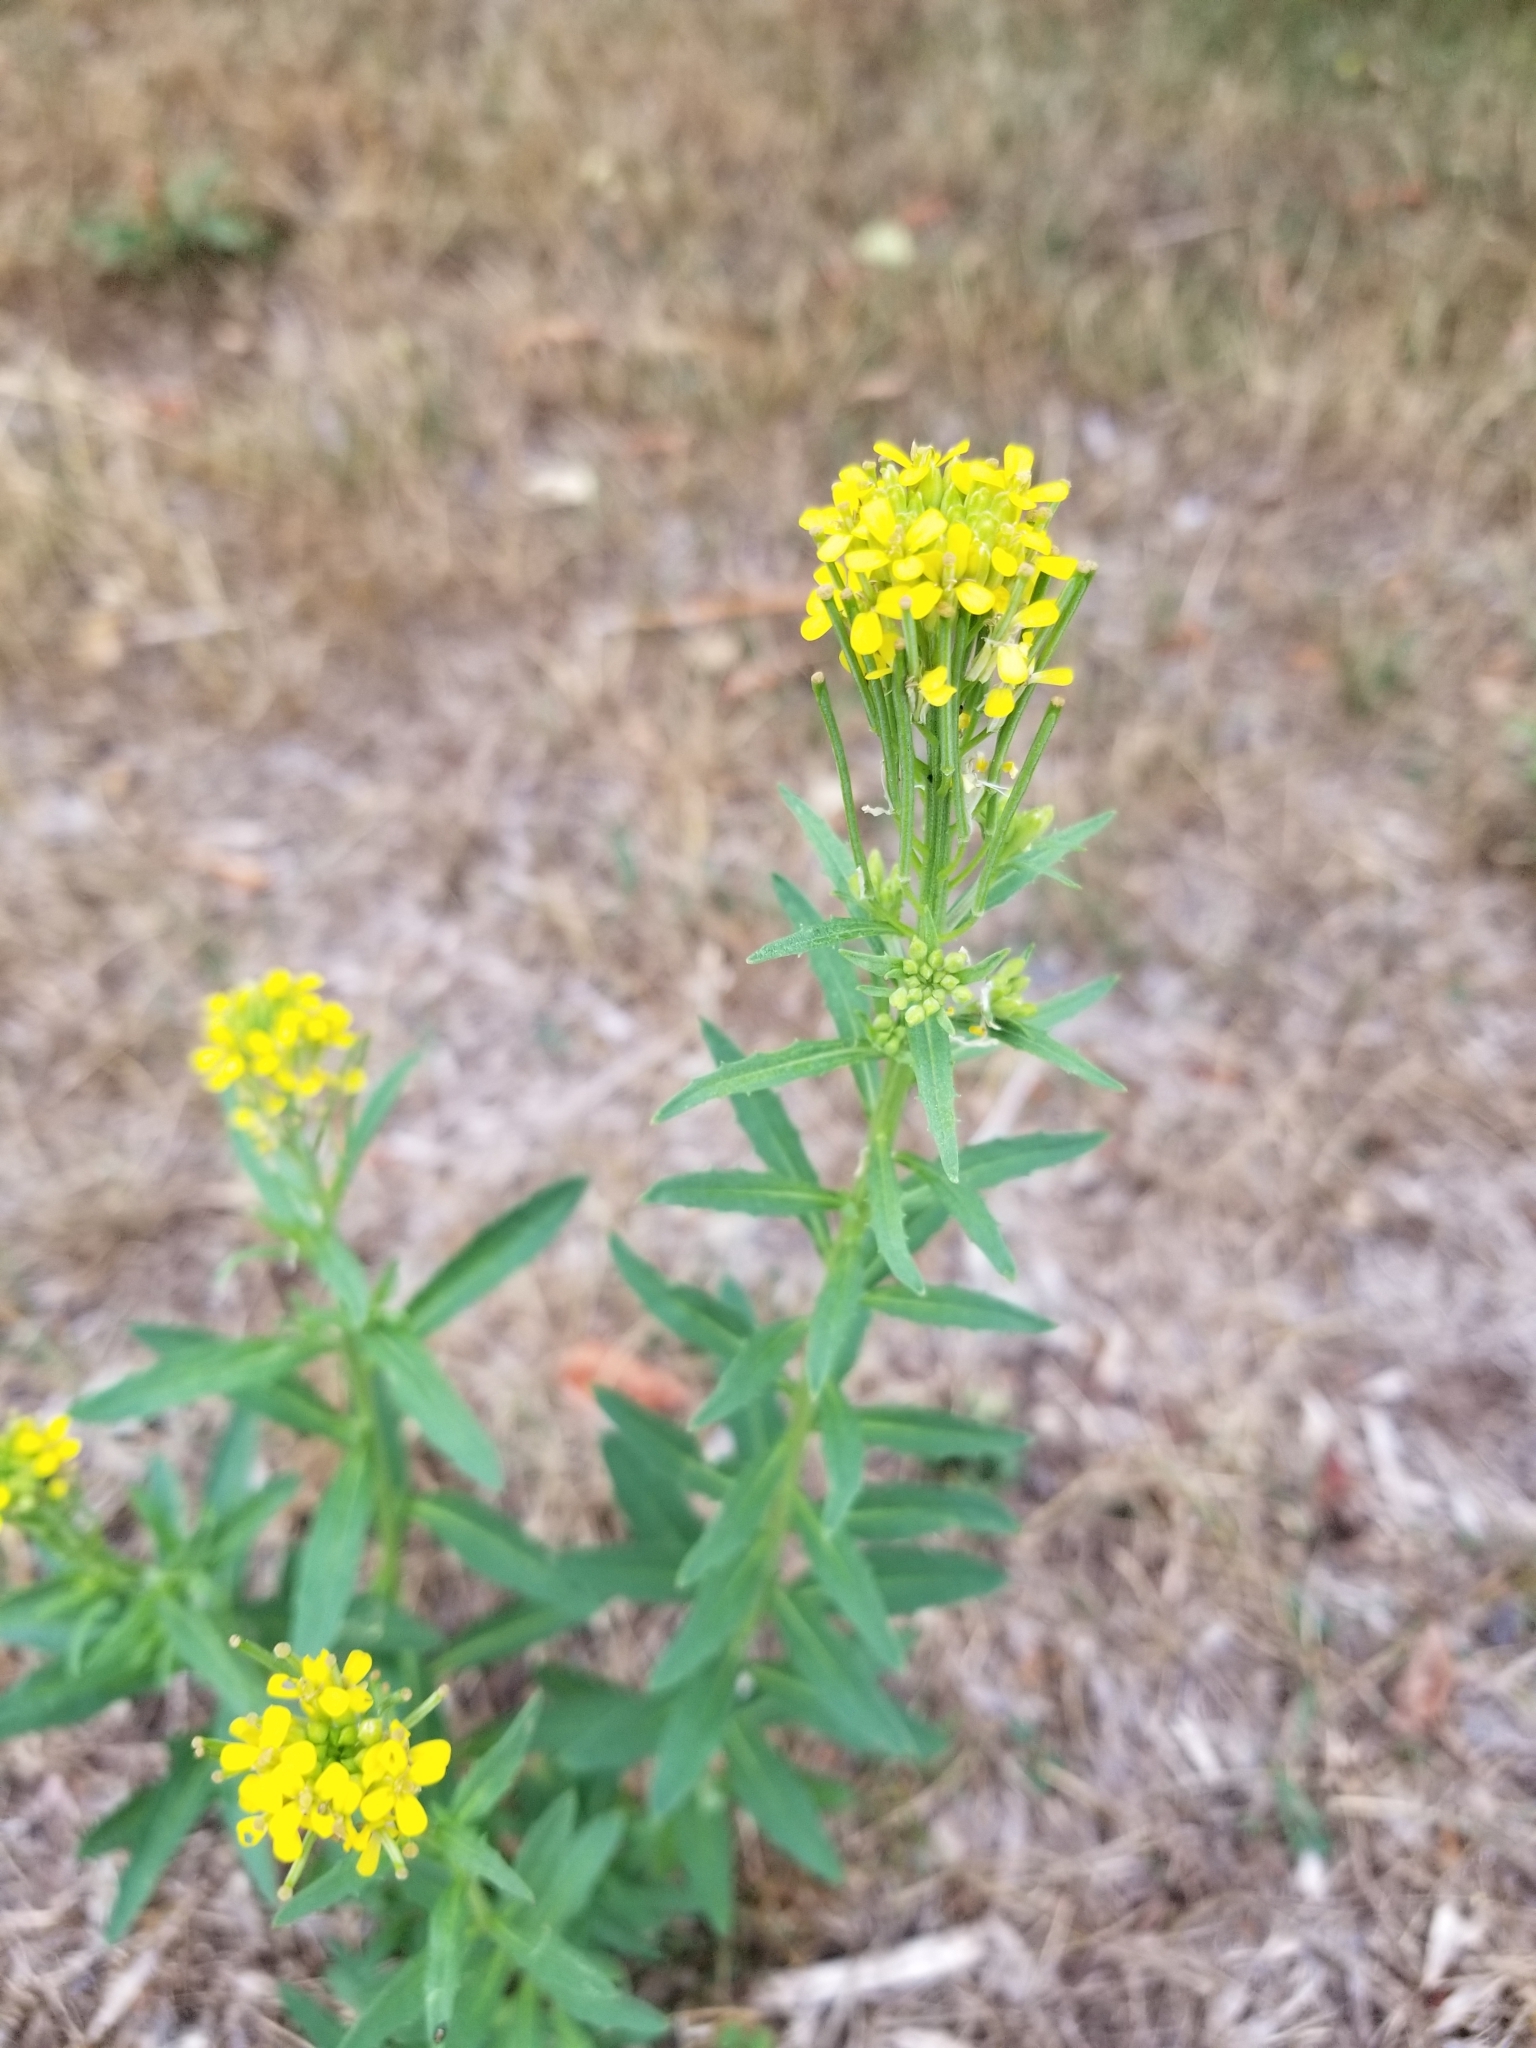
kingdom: Plantae
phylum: Tracheophyta
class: Magnoliopsida
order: Brassicales
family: Brassicaceae
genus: Erysimum
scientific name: Erysimum cheiranthoides
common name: Treacle mustard
